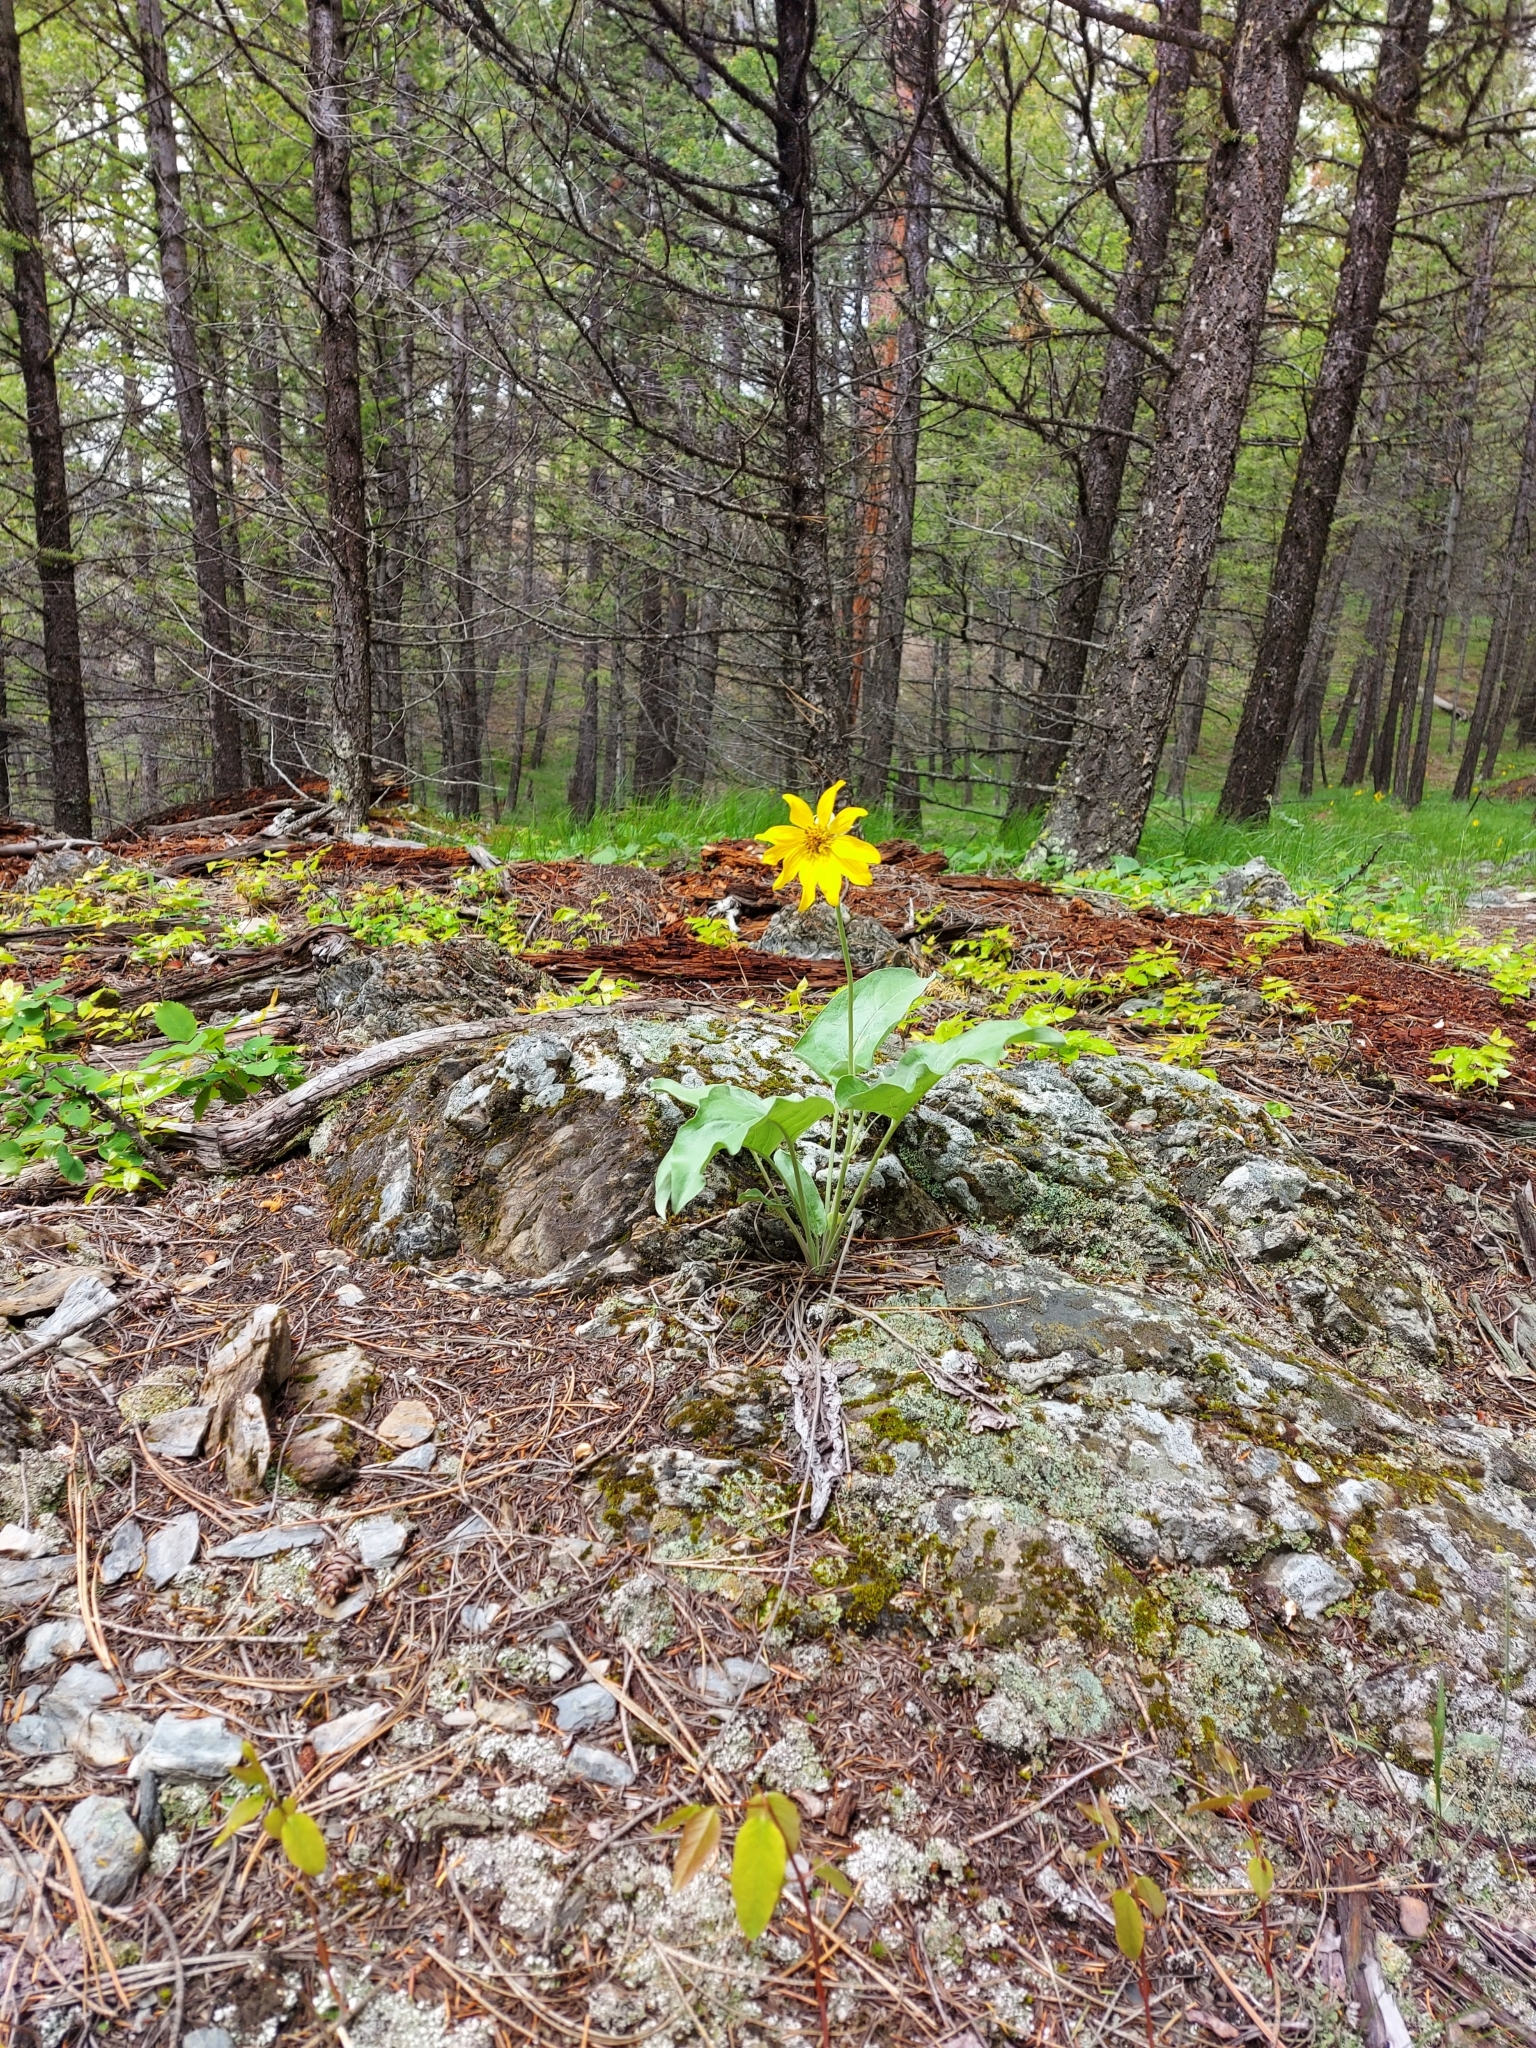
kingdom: Plantae
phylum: Tracheophyta
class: Magnoliopsida
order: Asterales
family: Asteraceae
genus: Arnica
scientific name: Arnica cordifolia
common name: Heart-leaf arnica
